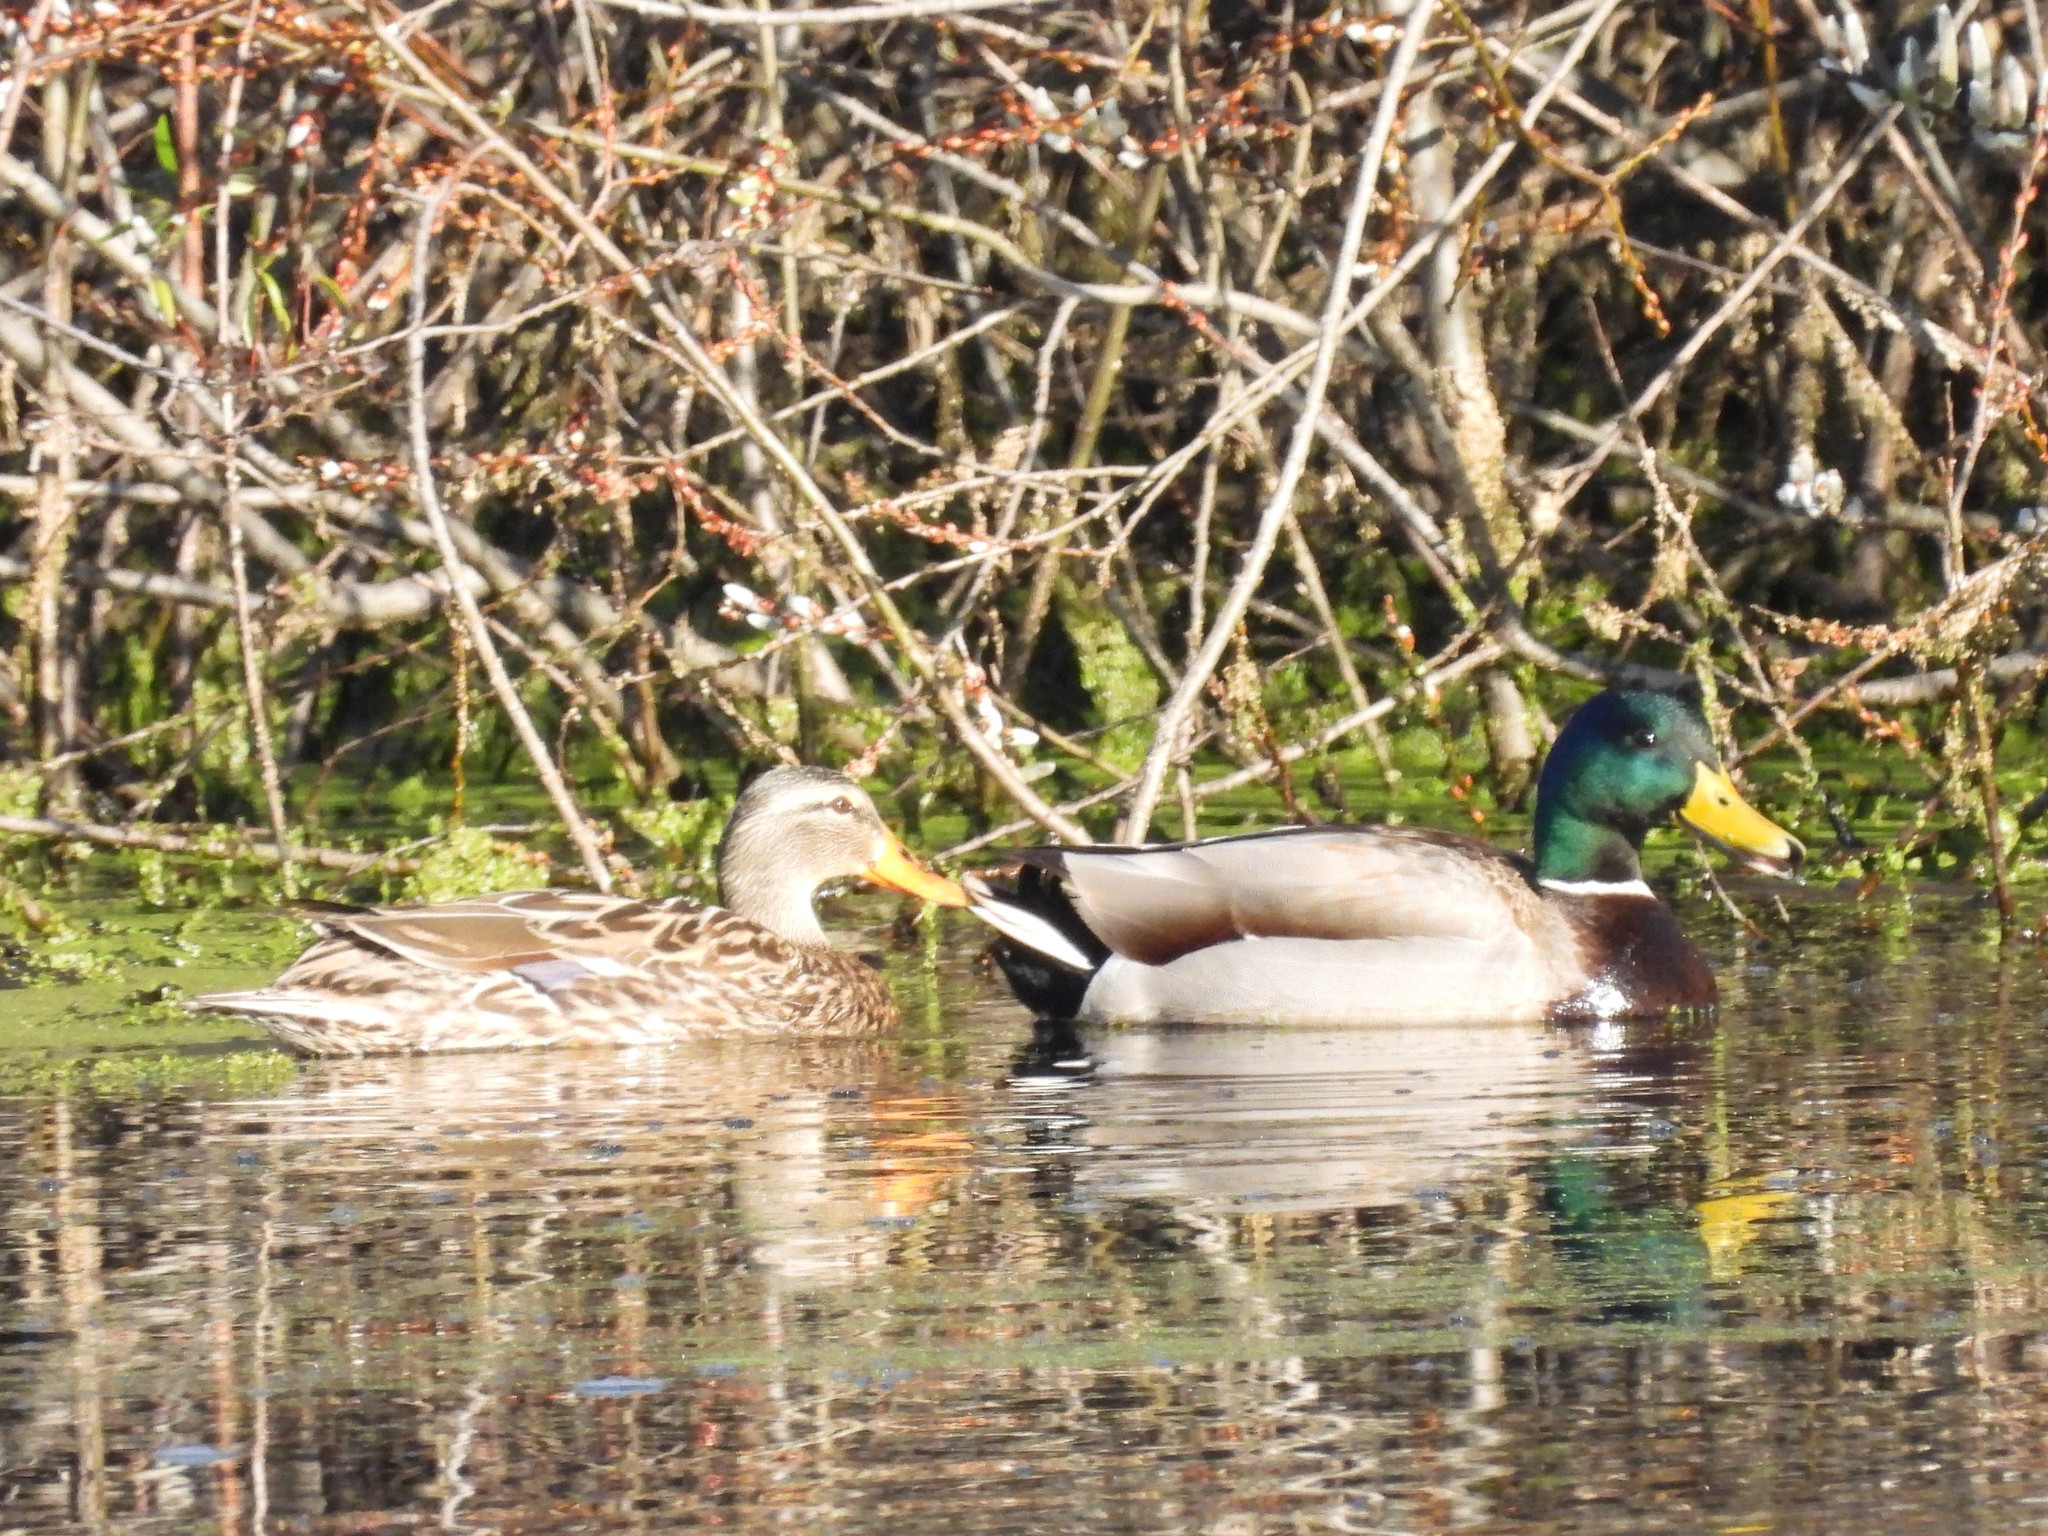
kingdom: Animalia
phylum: Chordata
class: Aves
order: Anseriformes
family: Anatidae
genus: Anas
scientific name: Anas platyrhynchos
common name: Mallard
